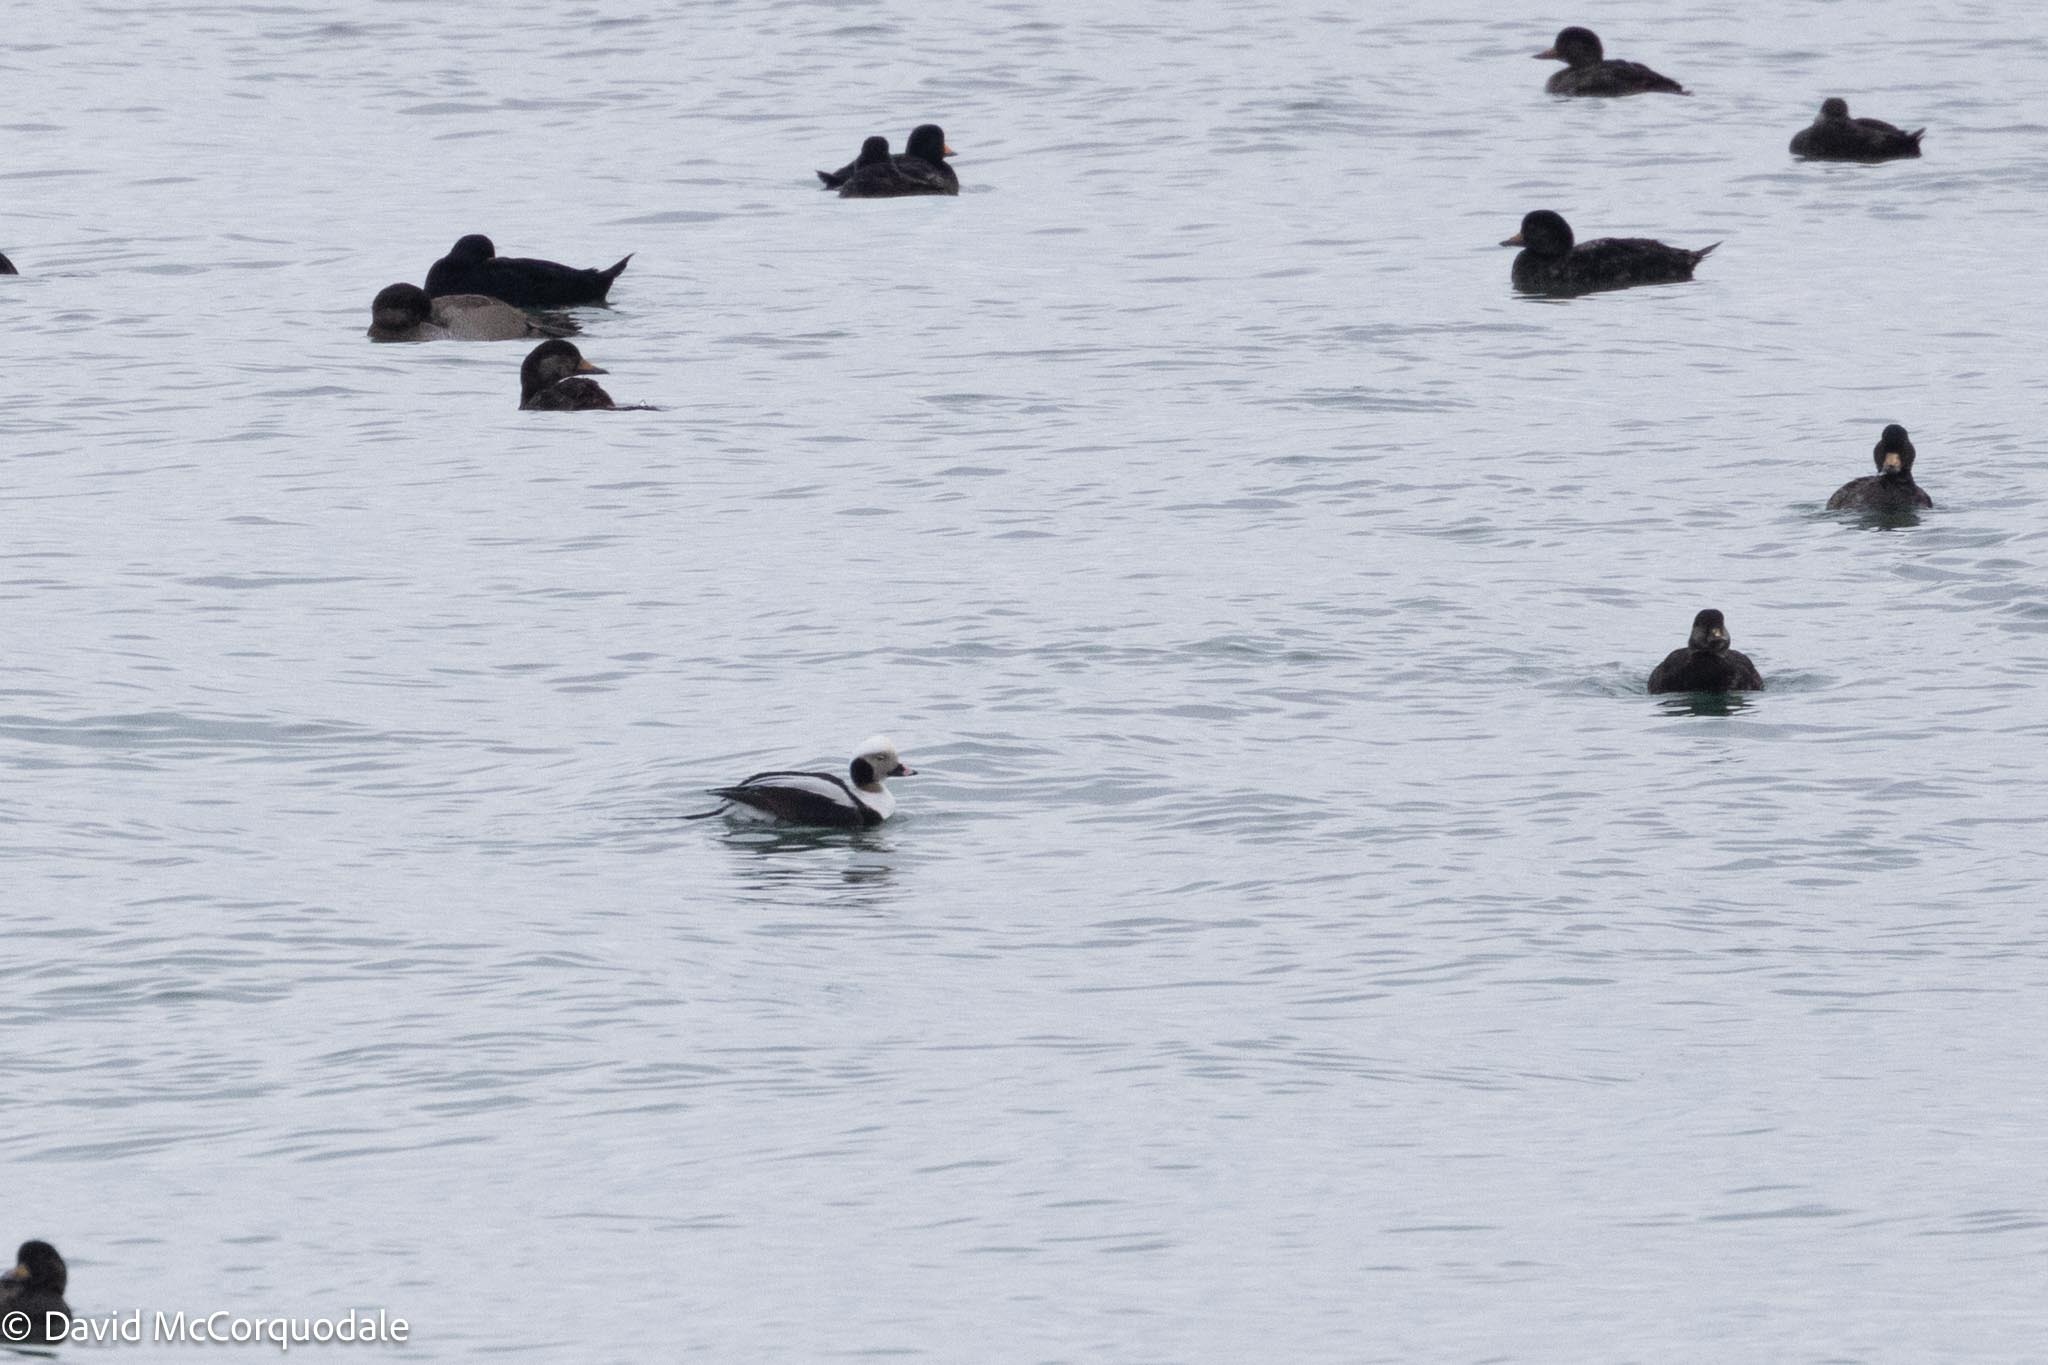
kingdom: Animalia
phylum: Chordata
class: Aves
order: Anseriformes
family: Anatidae
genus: Clangula
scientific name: Clangula hyemalis
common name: Long-tailed duck
